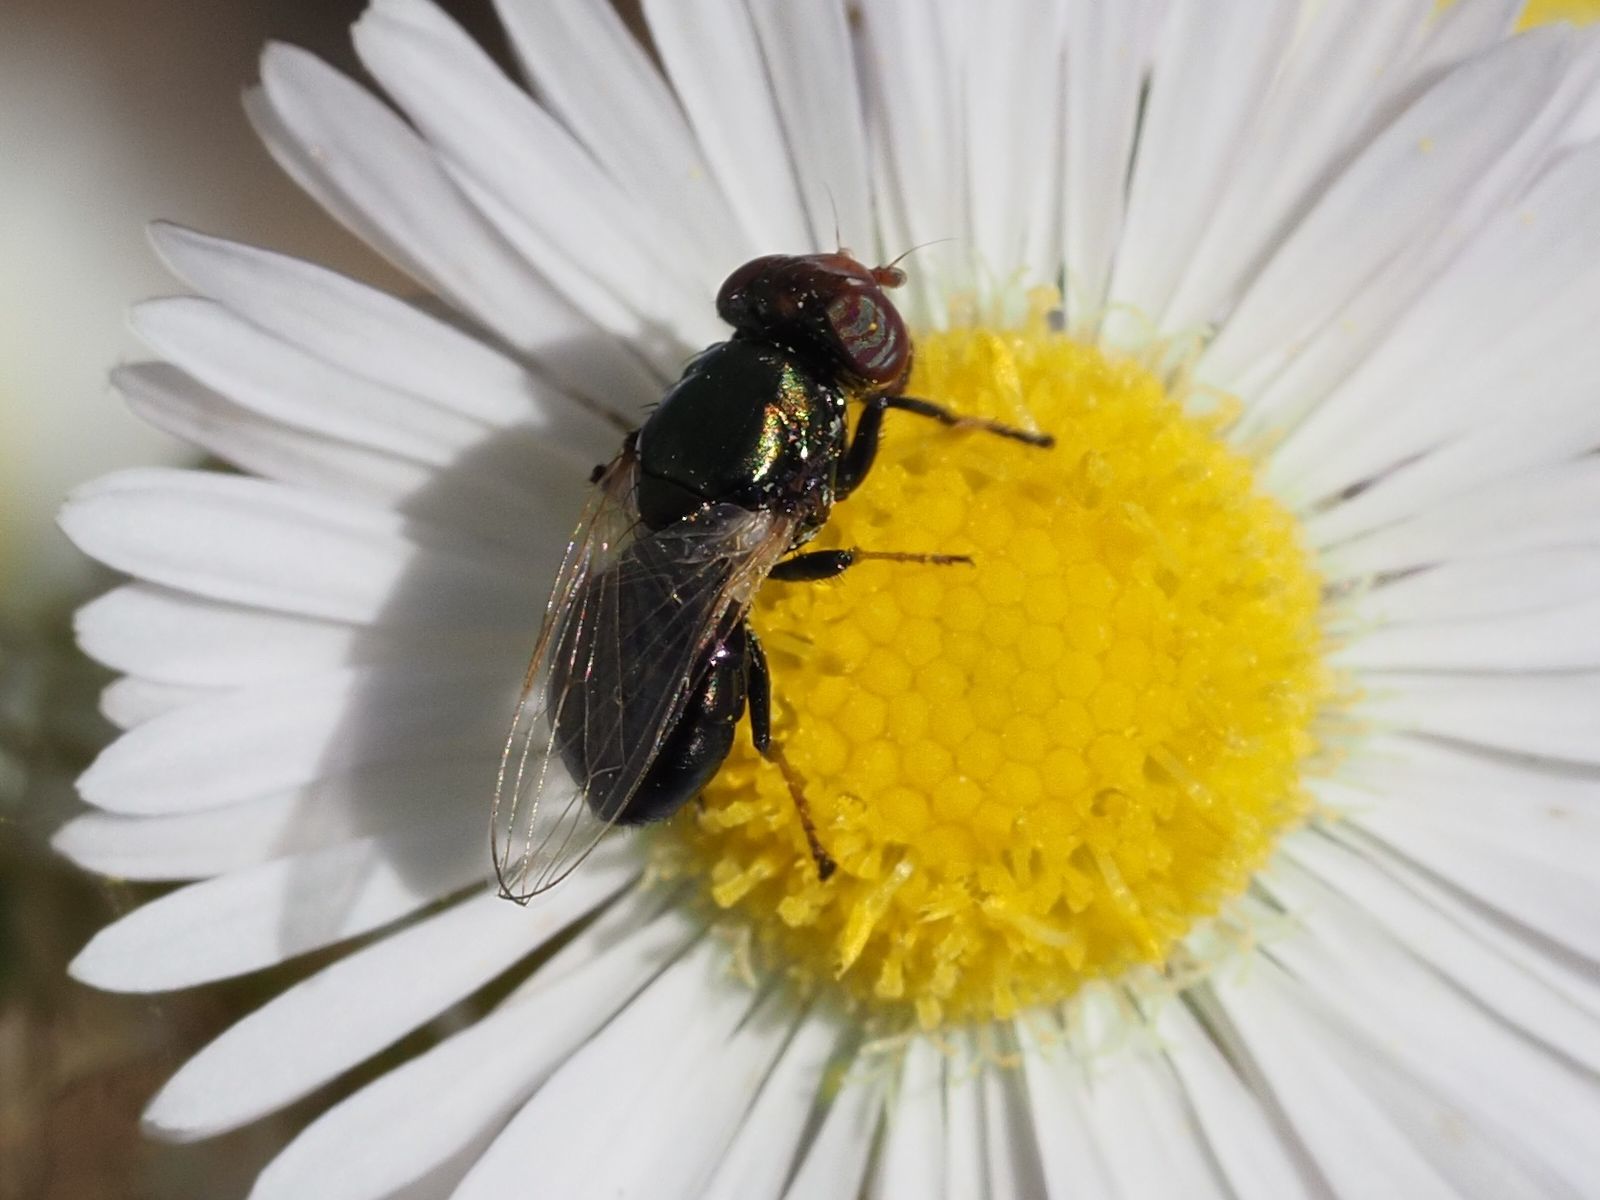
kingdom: Animalia
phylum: Arthropoda
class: Insecta
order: Diptera
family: Ulidiidae
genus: Physiphora
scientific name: Physiphora alceae
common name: Picture-winged fly
